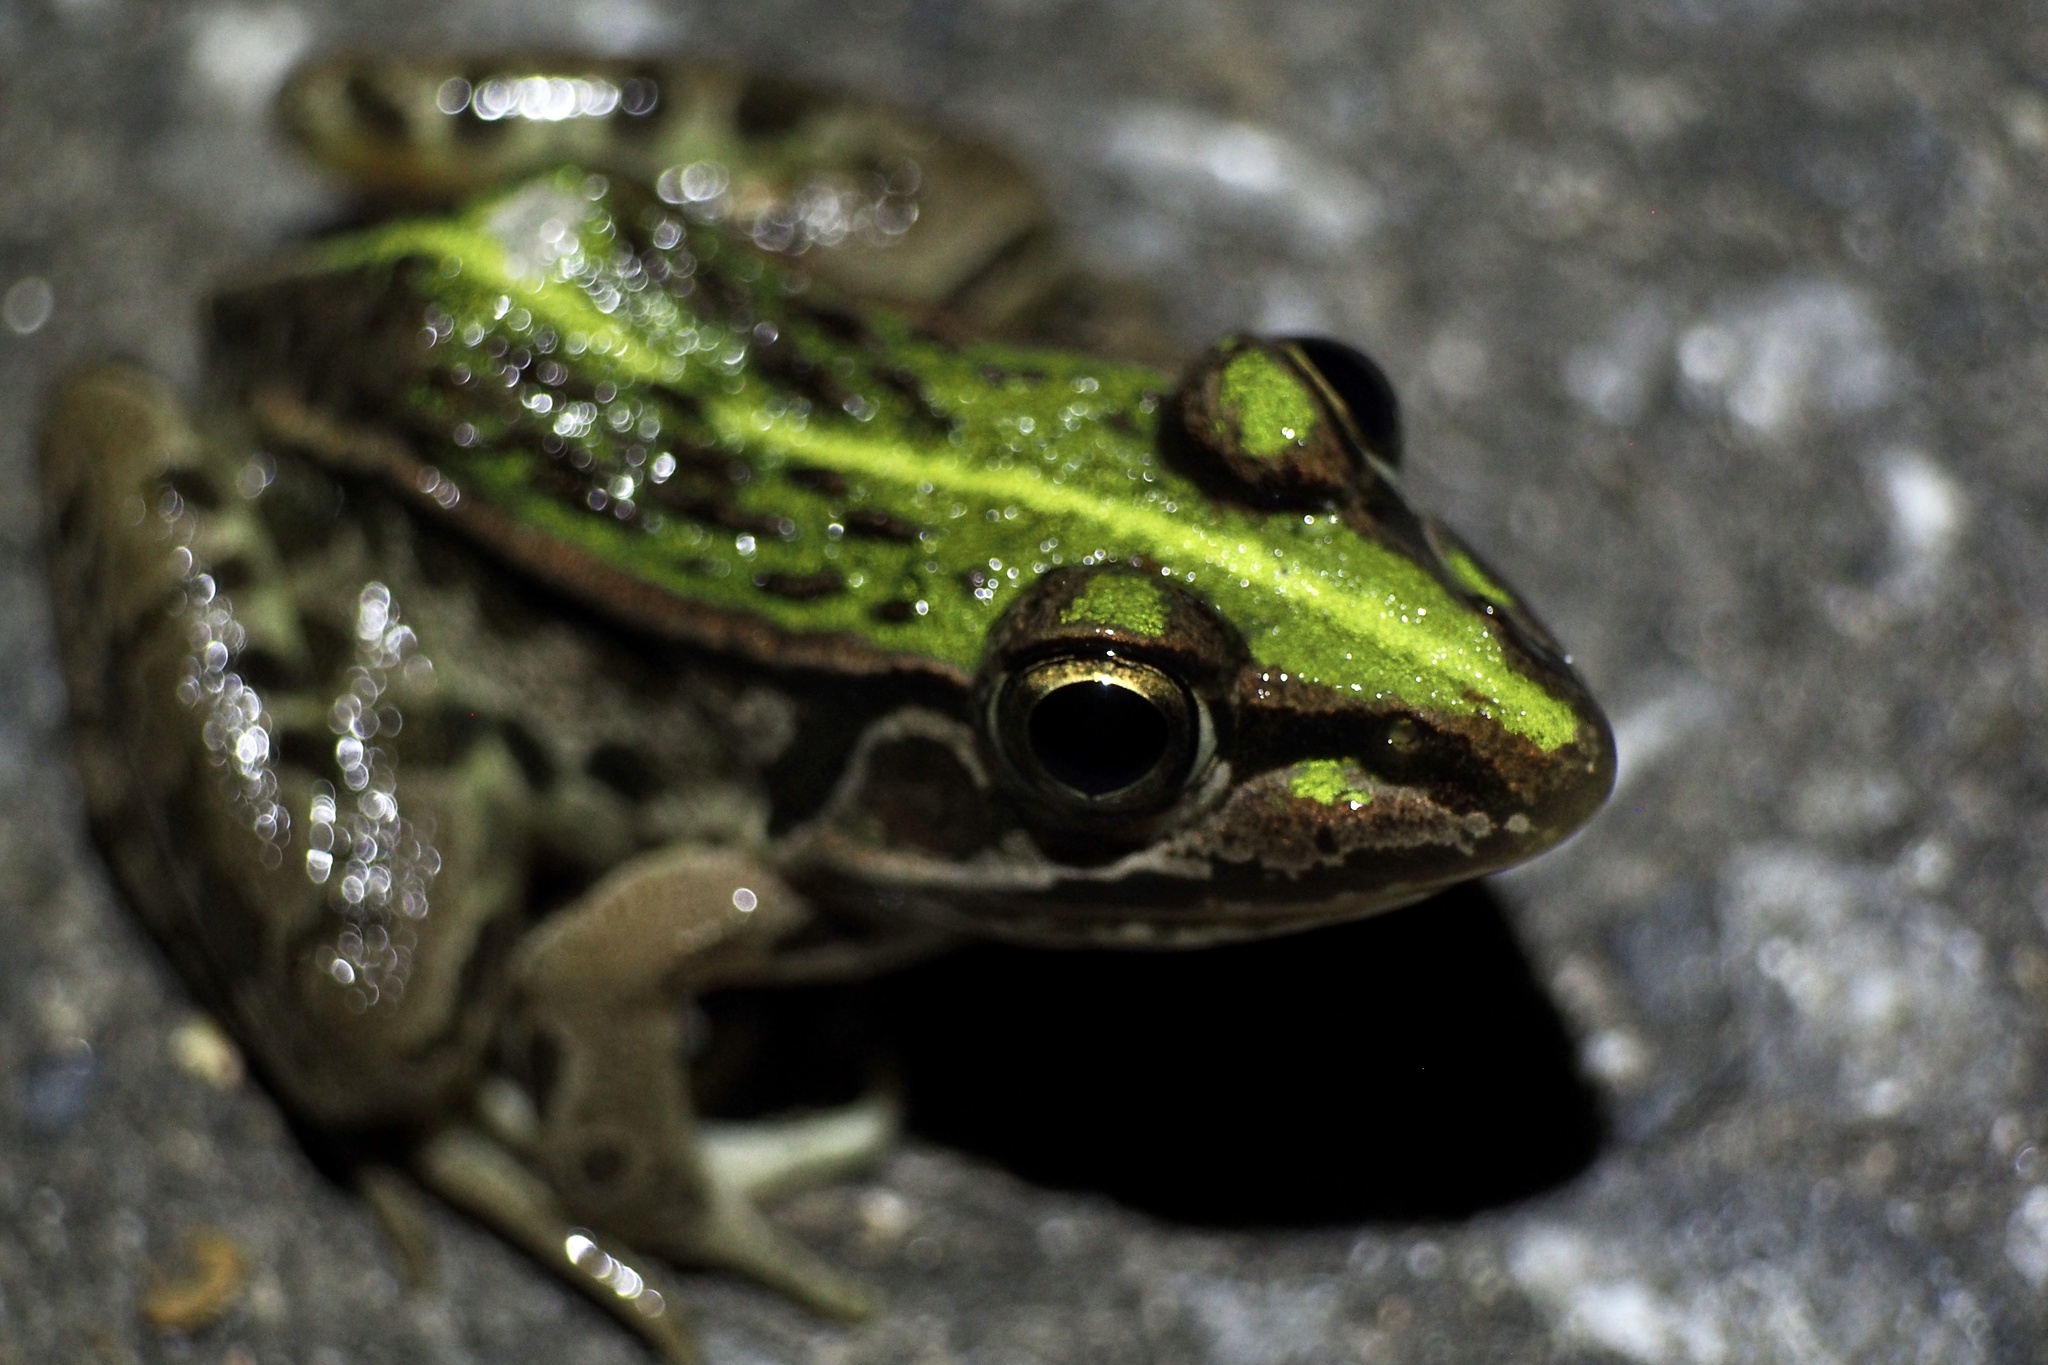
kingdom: Animalia
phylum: Chordata
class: Amphibia
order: Anura
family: Ranidae
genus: Pelophylax
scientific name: Pelophylax nigromaculatus
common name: Black-spotted pond frog
